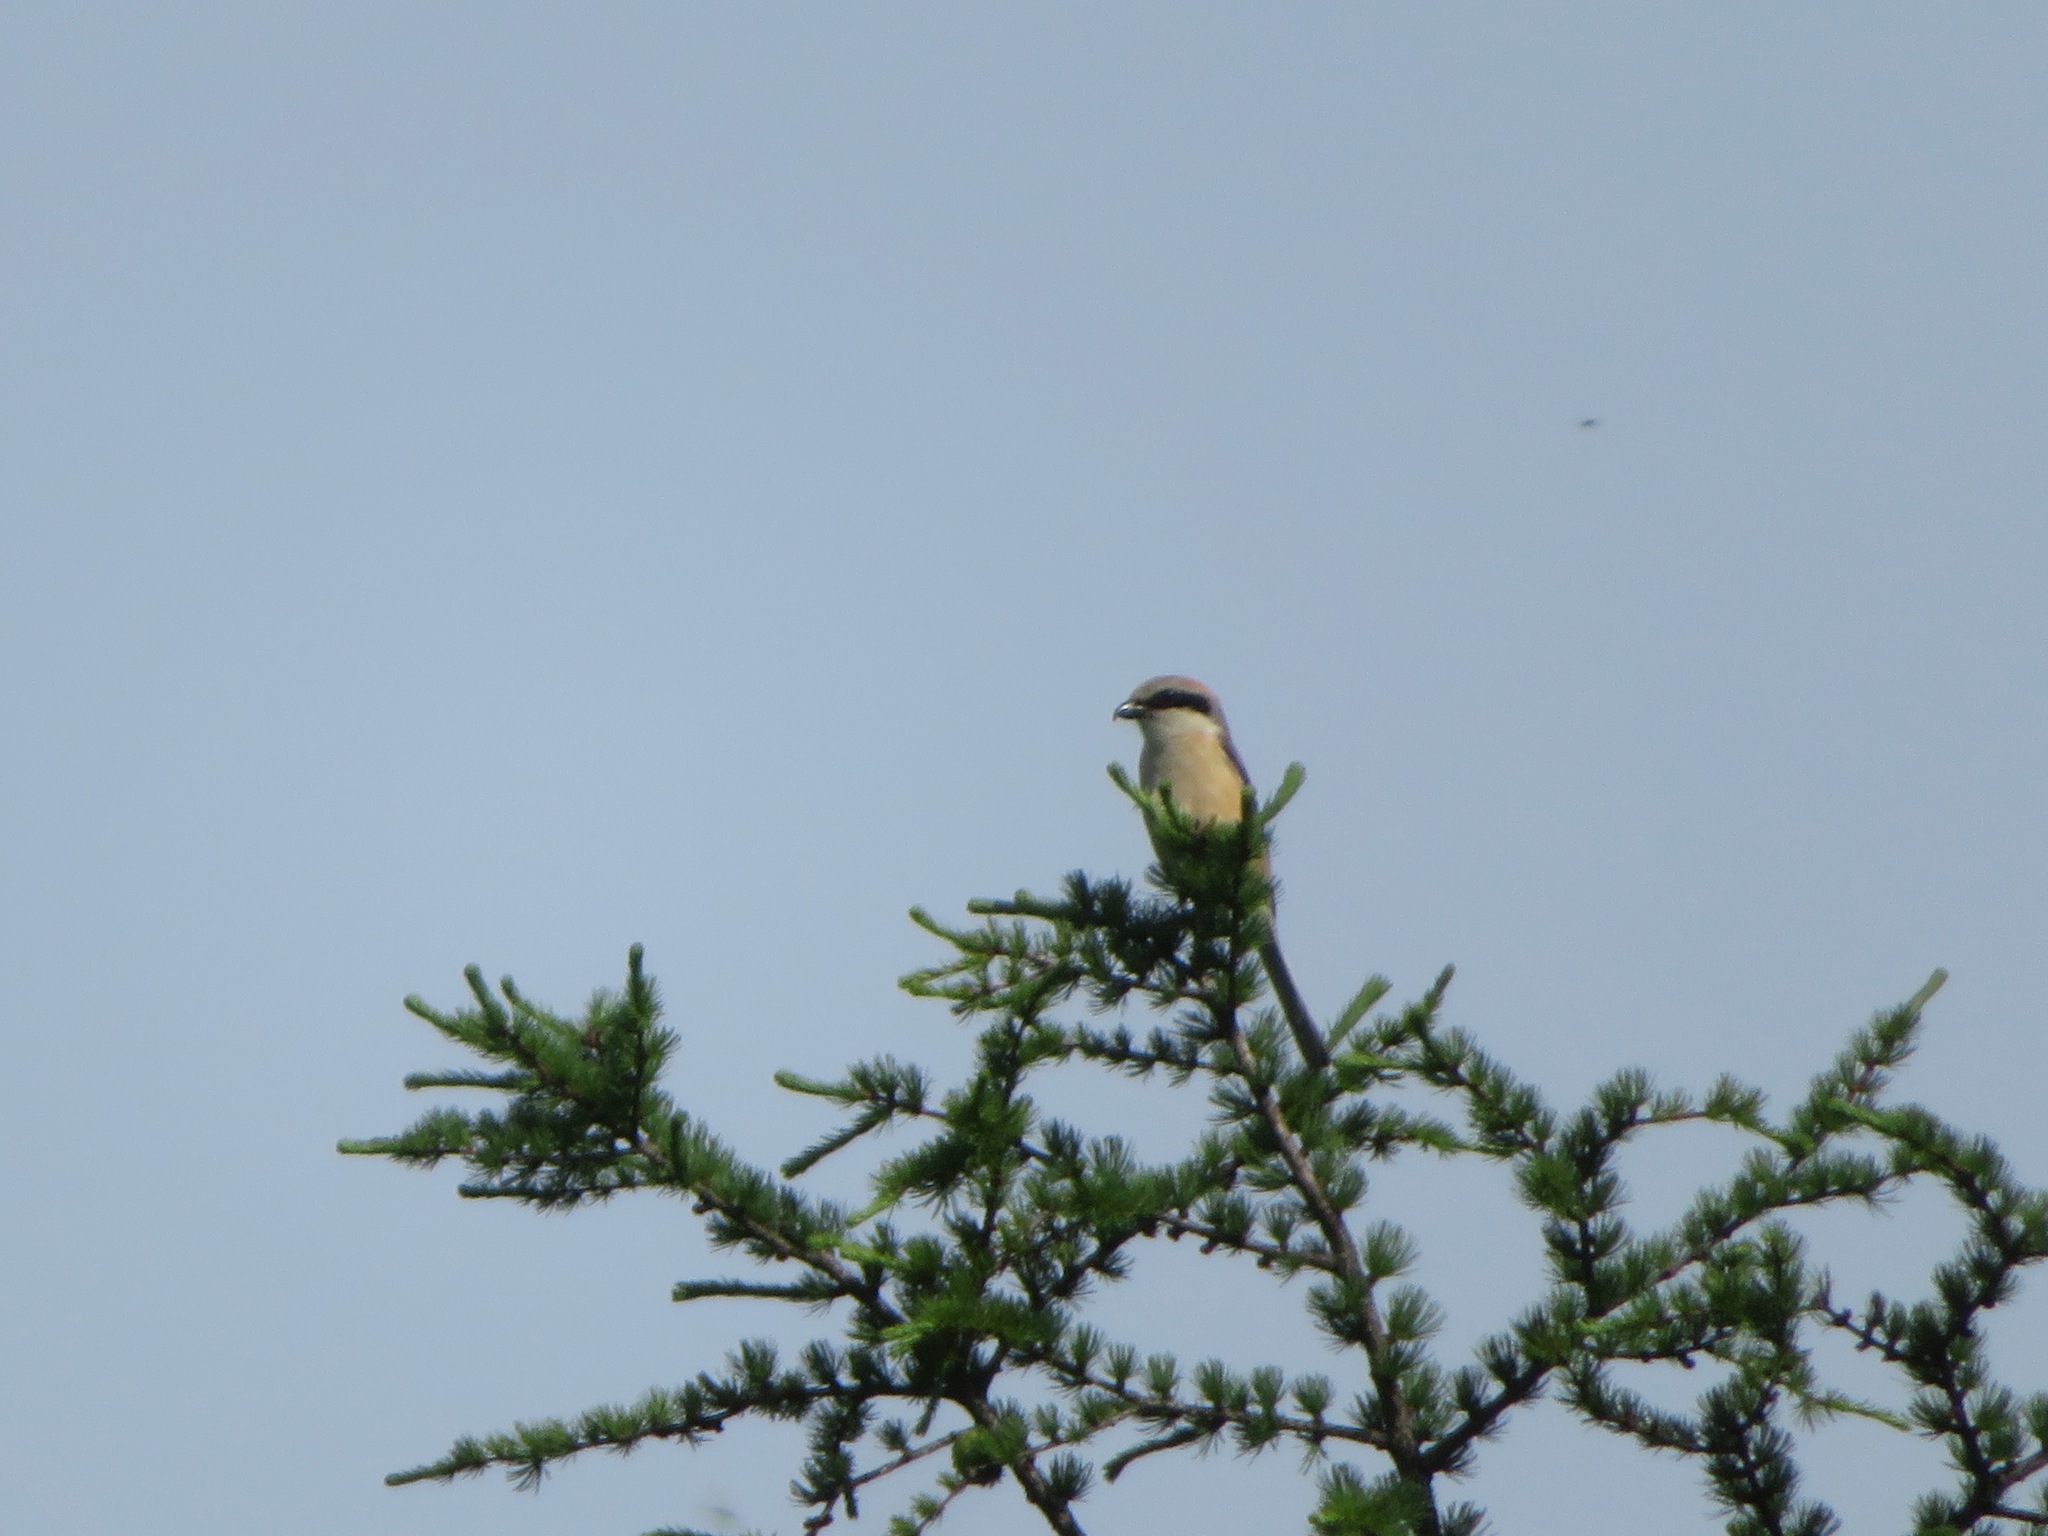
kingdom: Animalia
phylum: Chordata
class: Aves
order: Passeriformes
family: Laniidae
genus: Lanius
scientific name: Lanius bucephalus
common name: Bull-headed shrike
